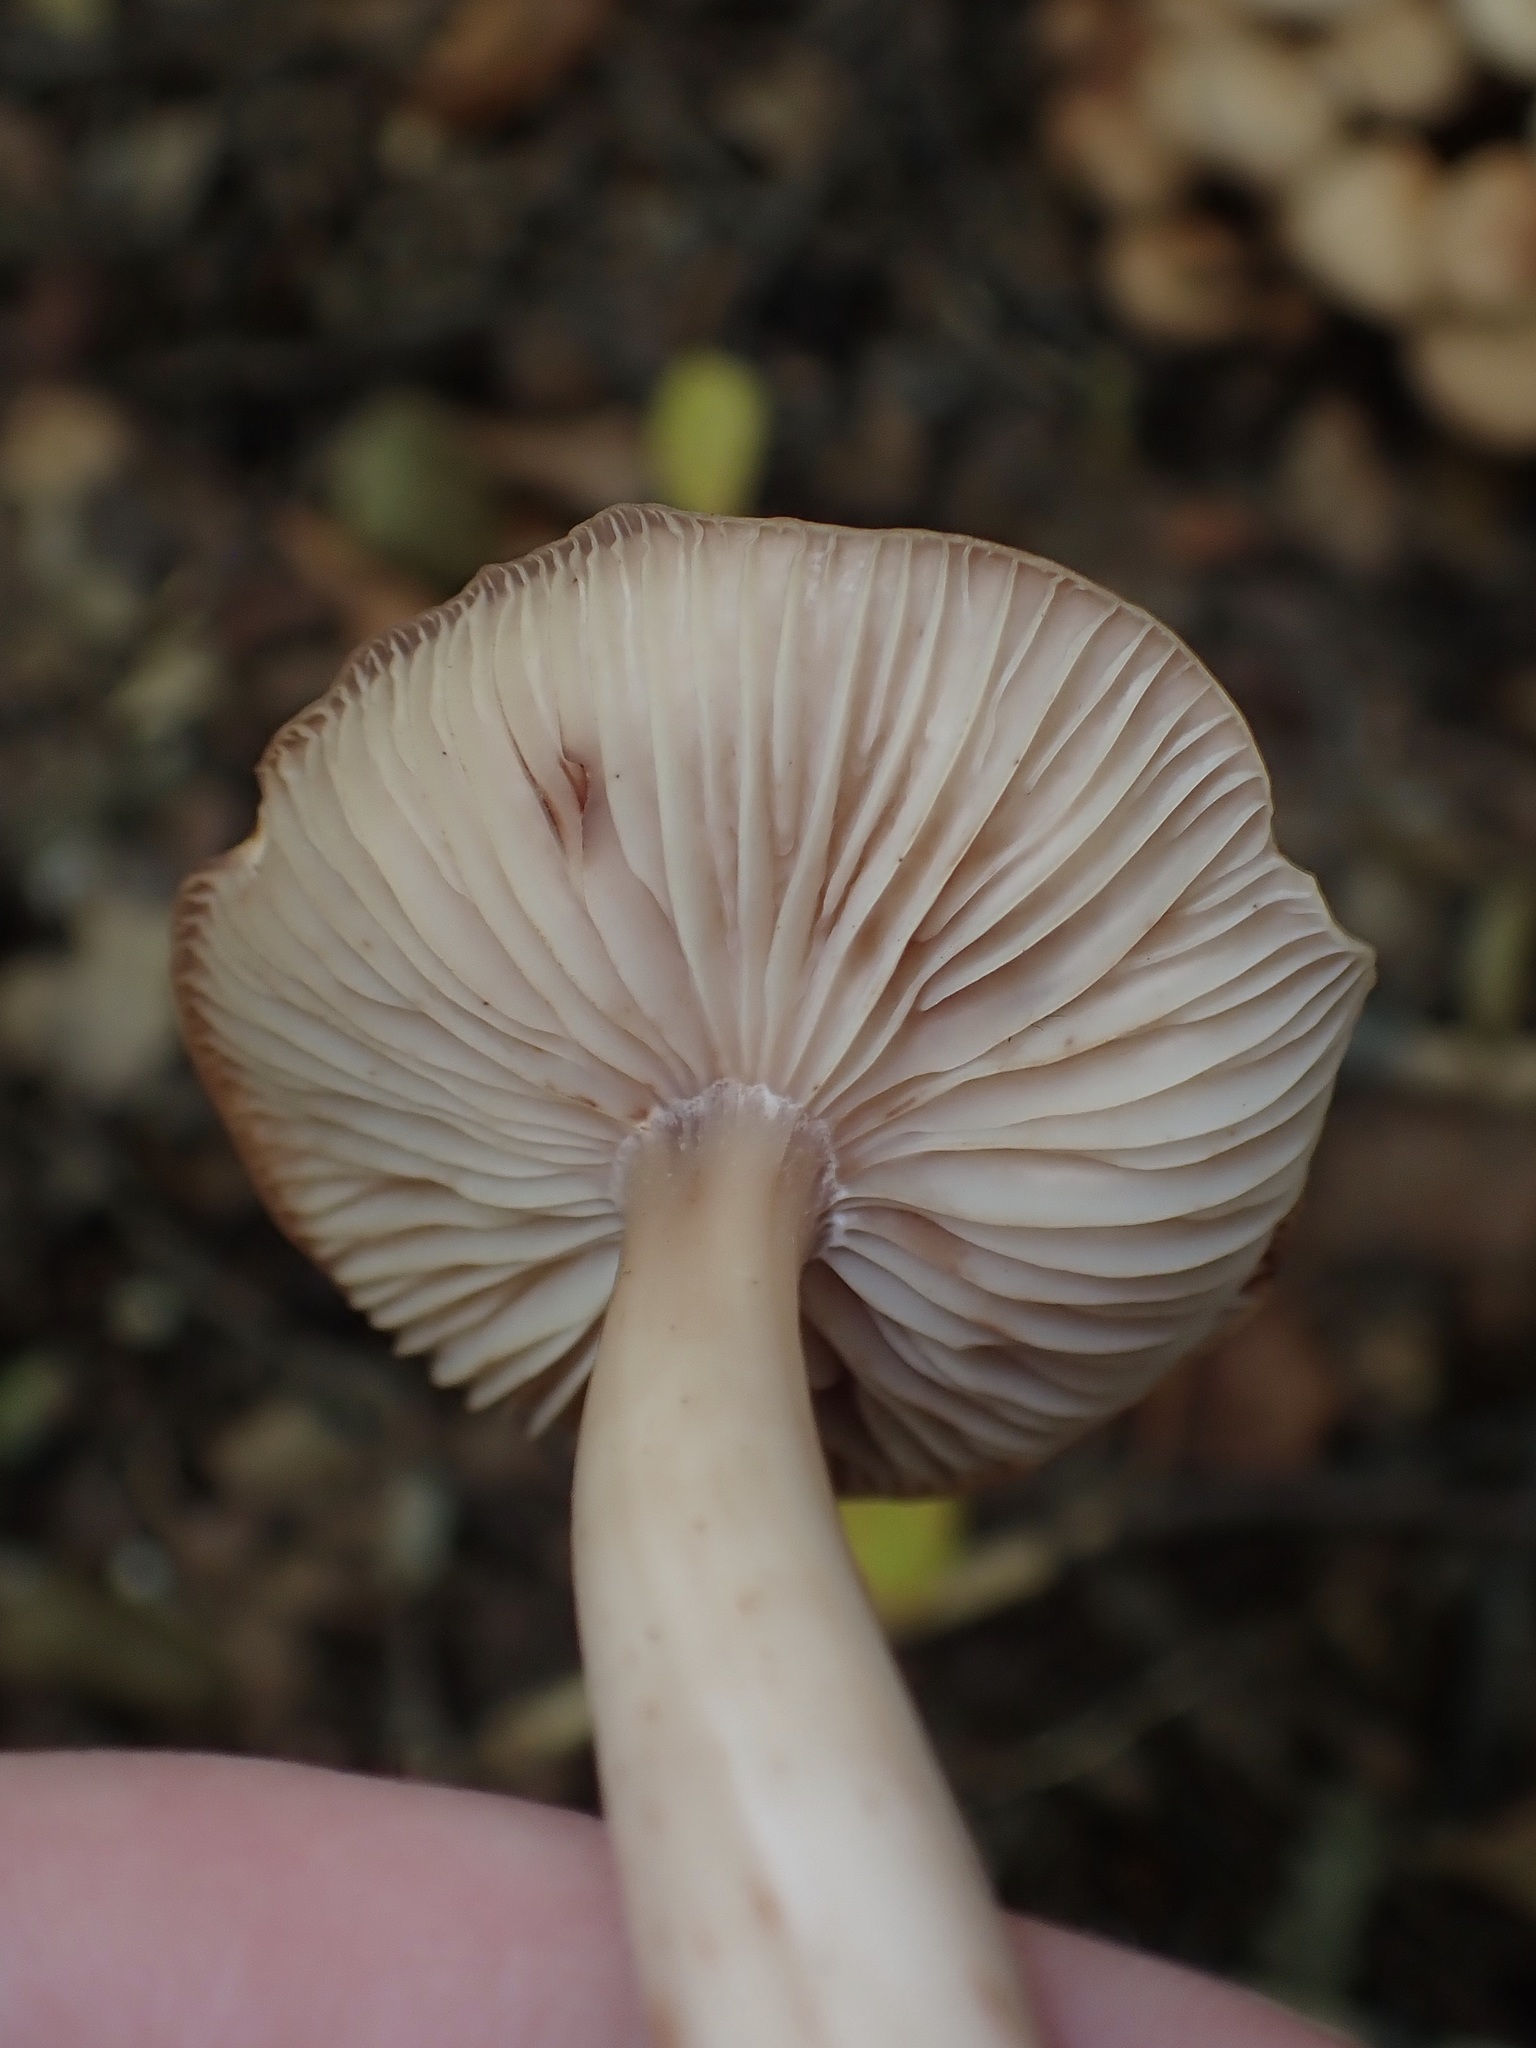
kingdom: Fungi
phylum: Basidiomycota
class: Agaricomycetes
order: Agaricales
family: Omphalotaceae
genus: Gymnopus
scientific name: Gymnopus fusipes
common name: Spindle shank
